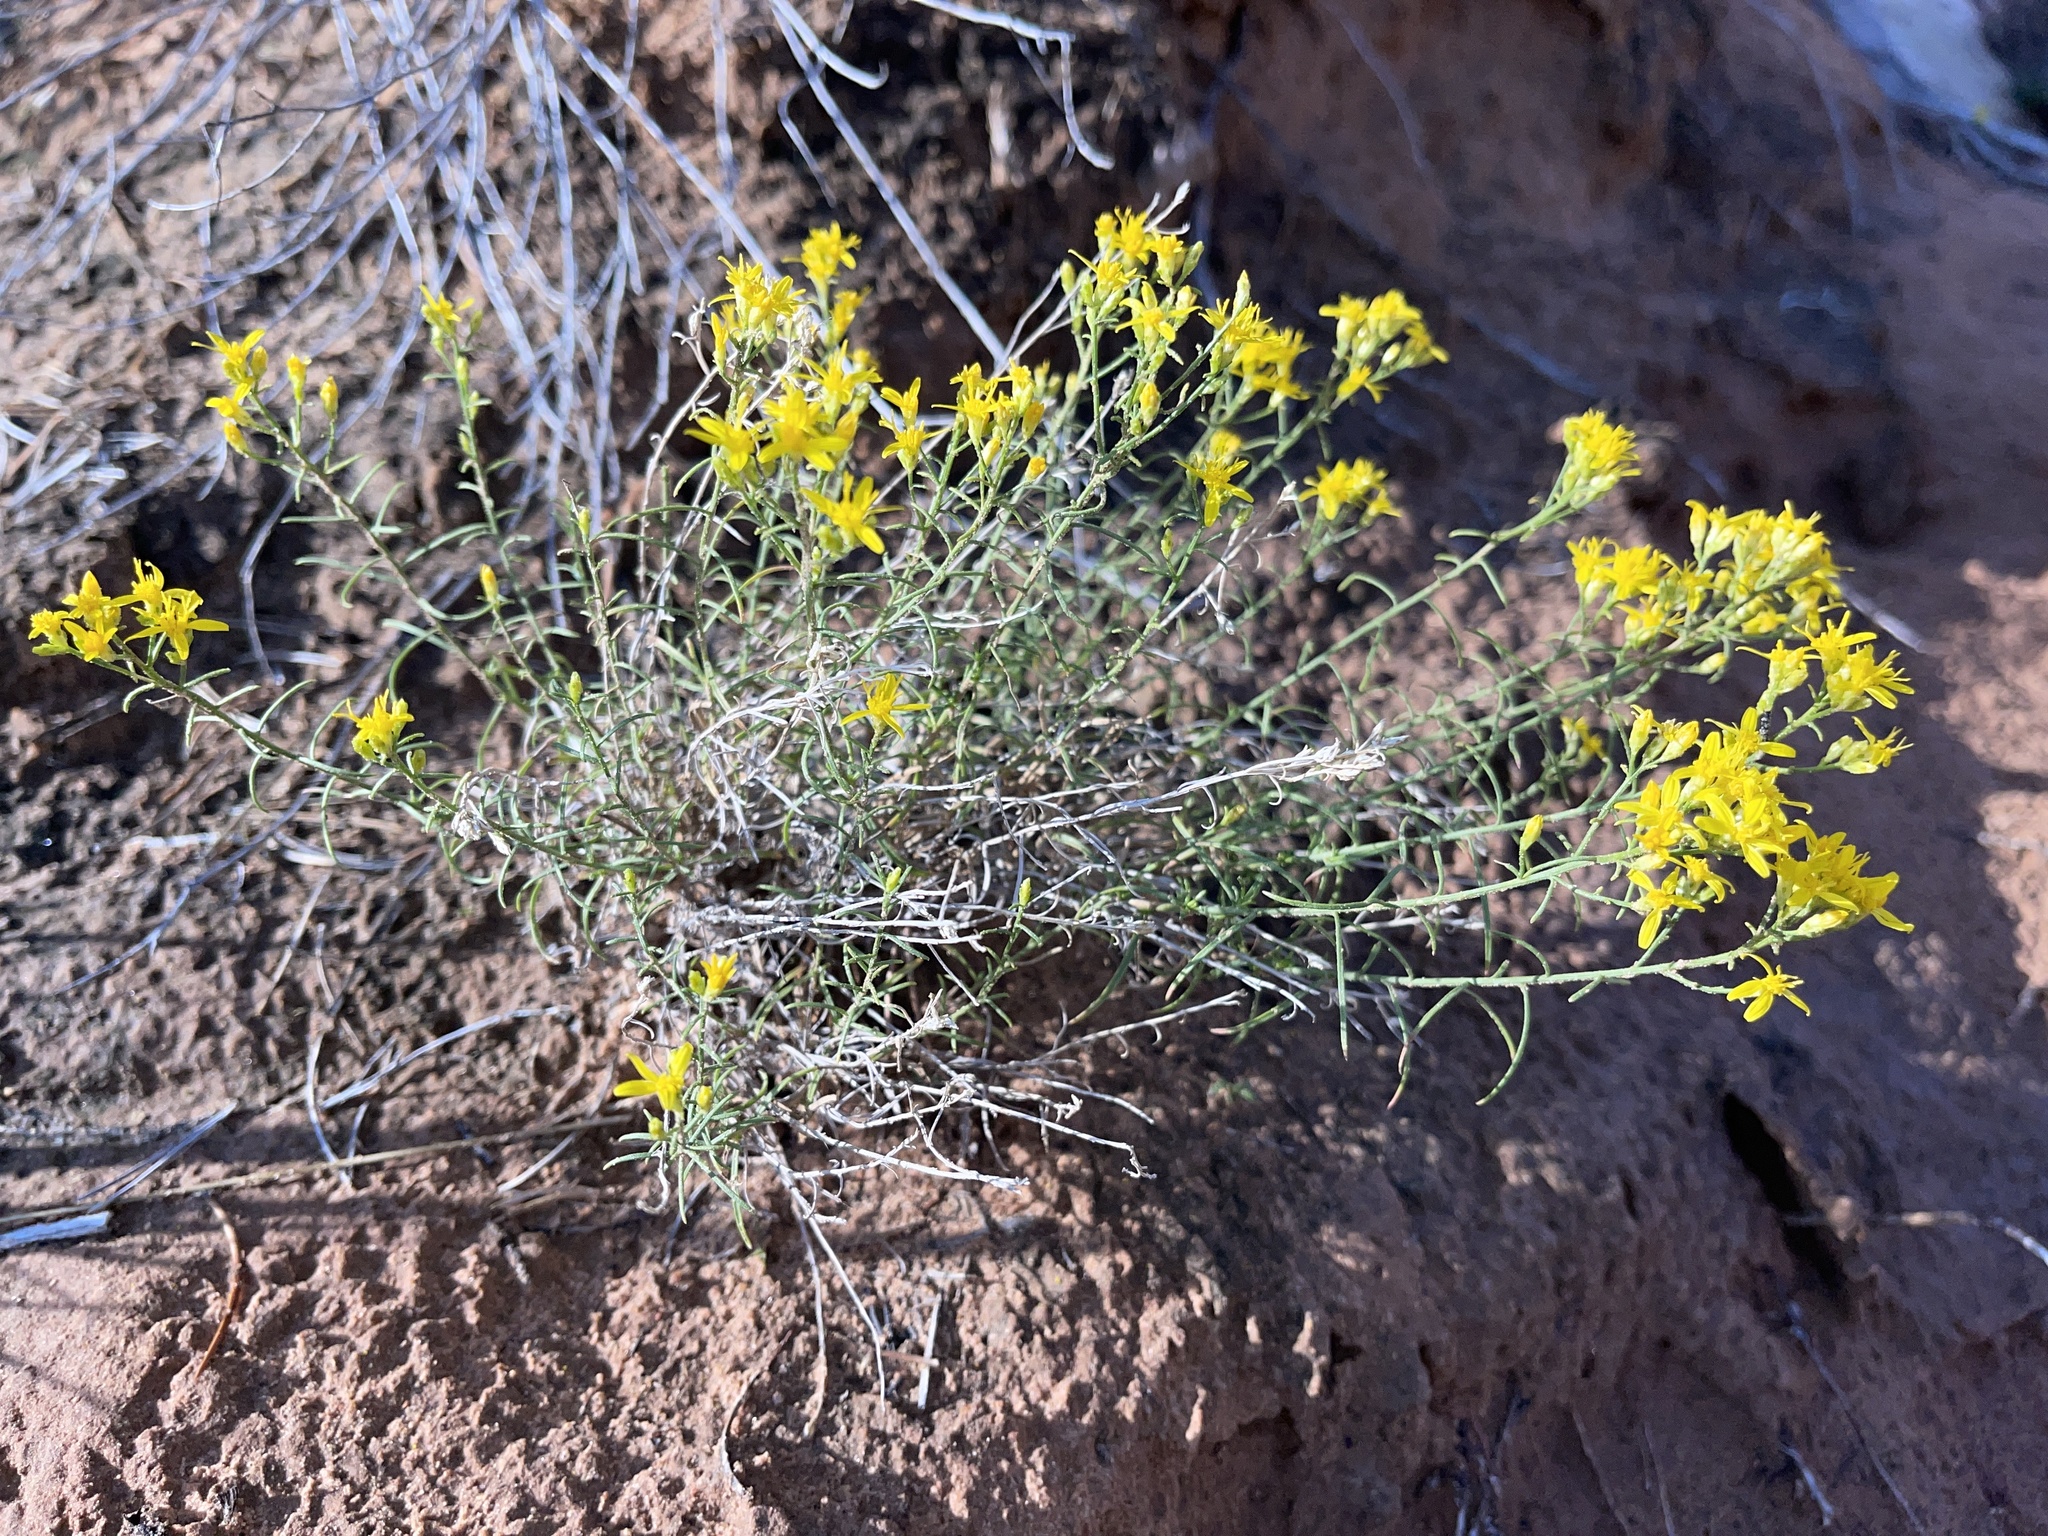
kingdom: Plantae
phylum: Tracheophyta
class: Magnoliopsida
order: Asterales
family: Asteraceae
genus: Gutierrezia
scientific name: Gutierrezia sarothrae
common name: Broom snakeweed
